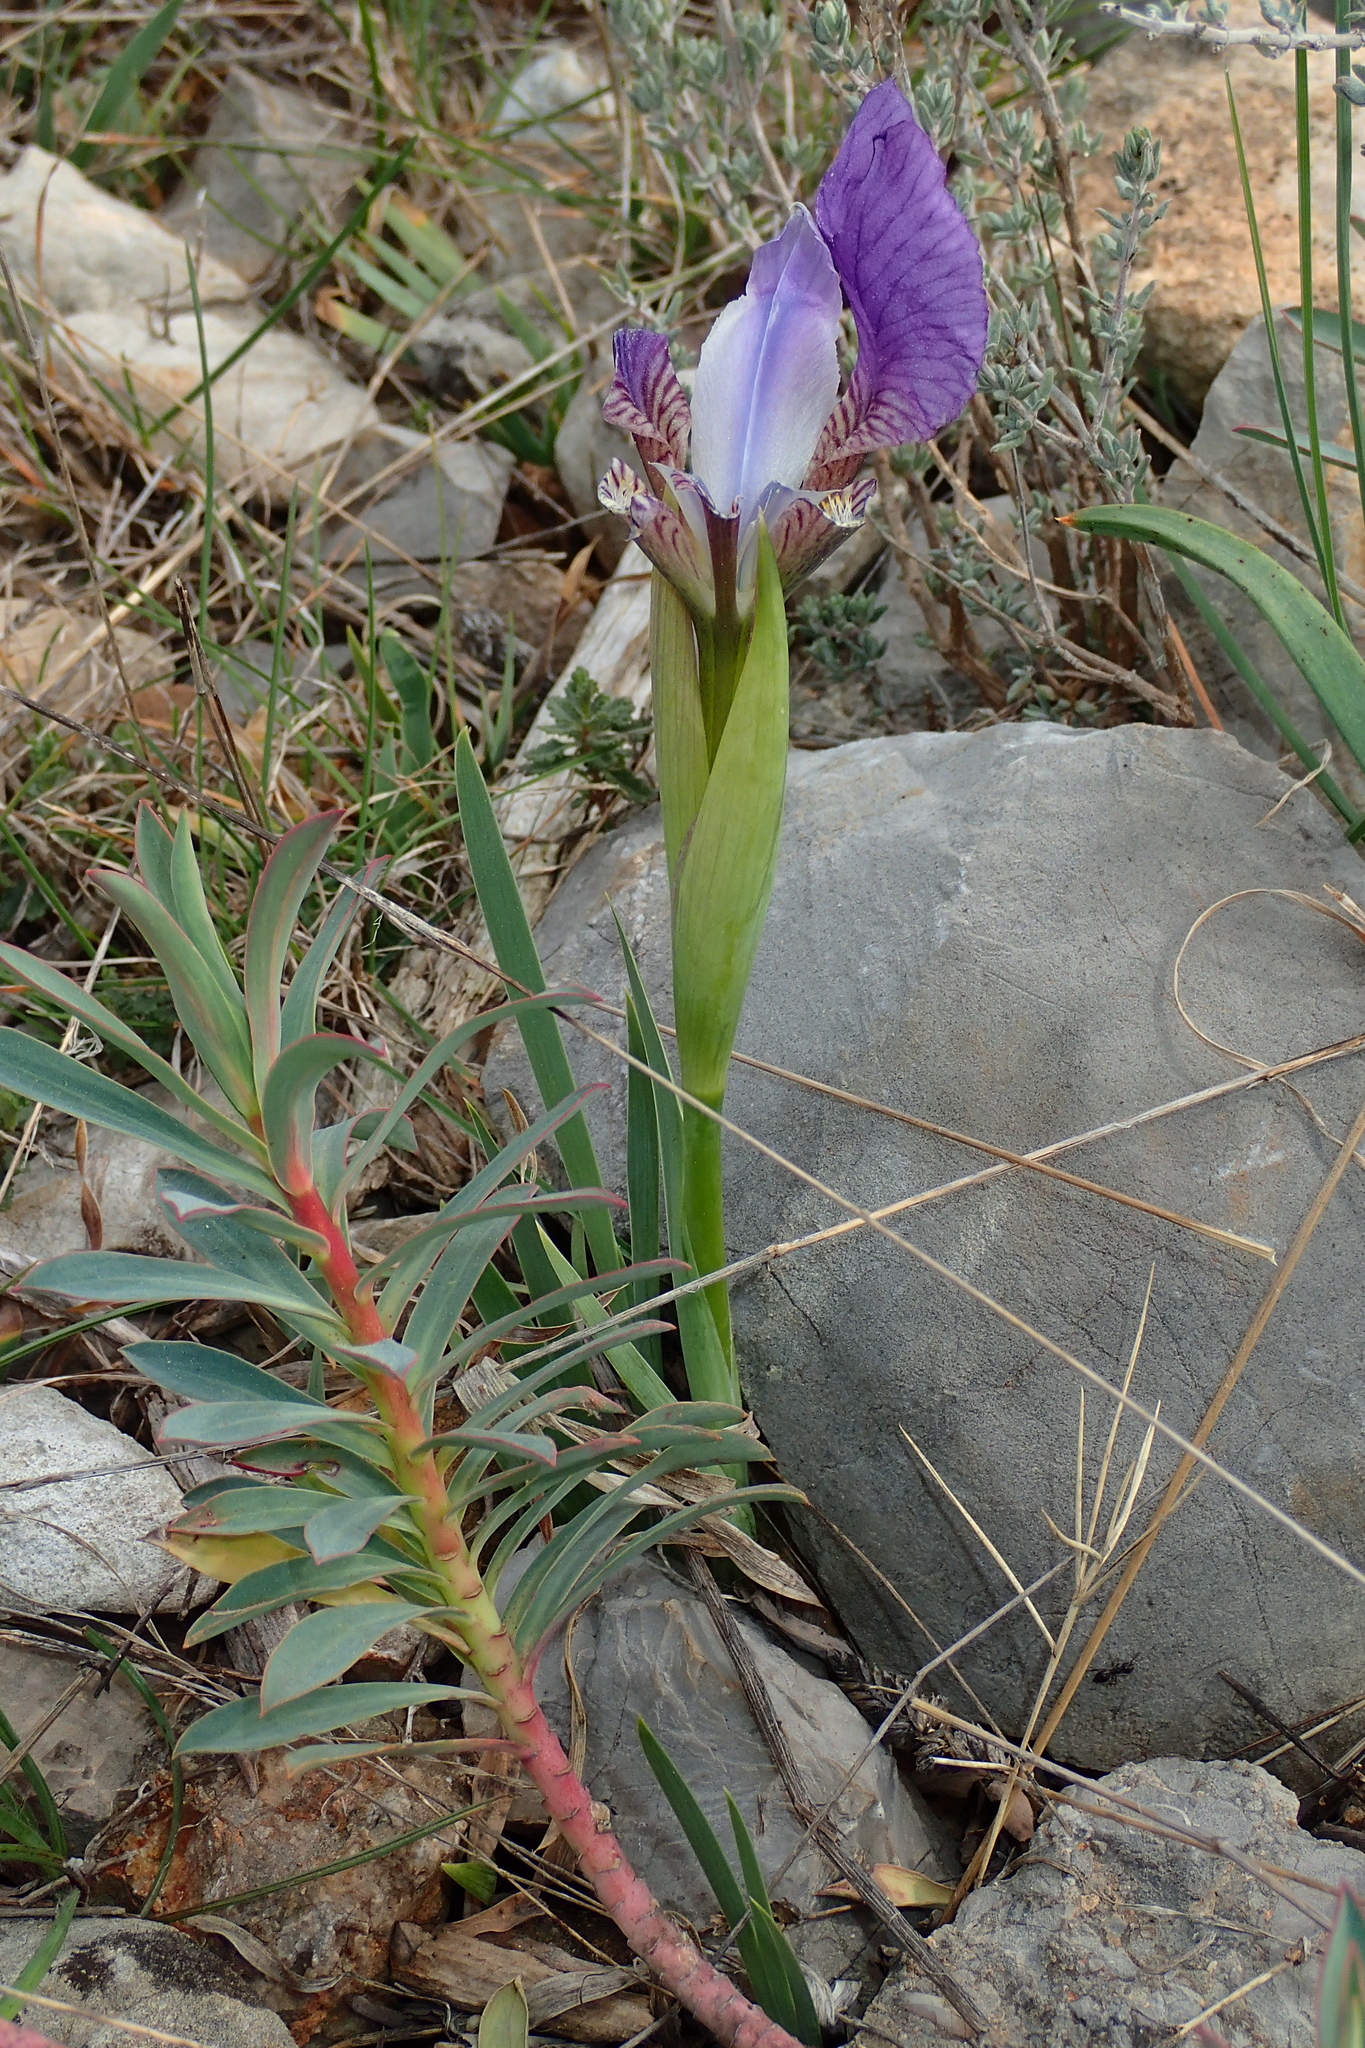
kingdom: Plantae
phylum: Tracheophyta
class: Liliopsida
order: Asparagales
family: Iridaceae
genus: Iris
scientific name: Iris lutescens
